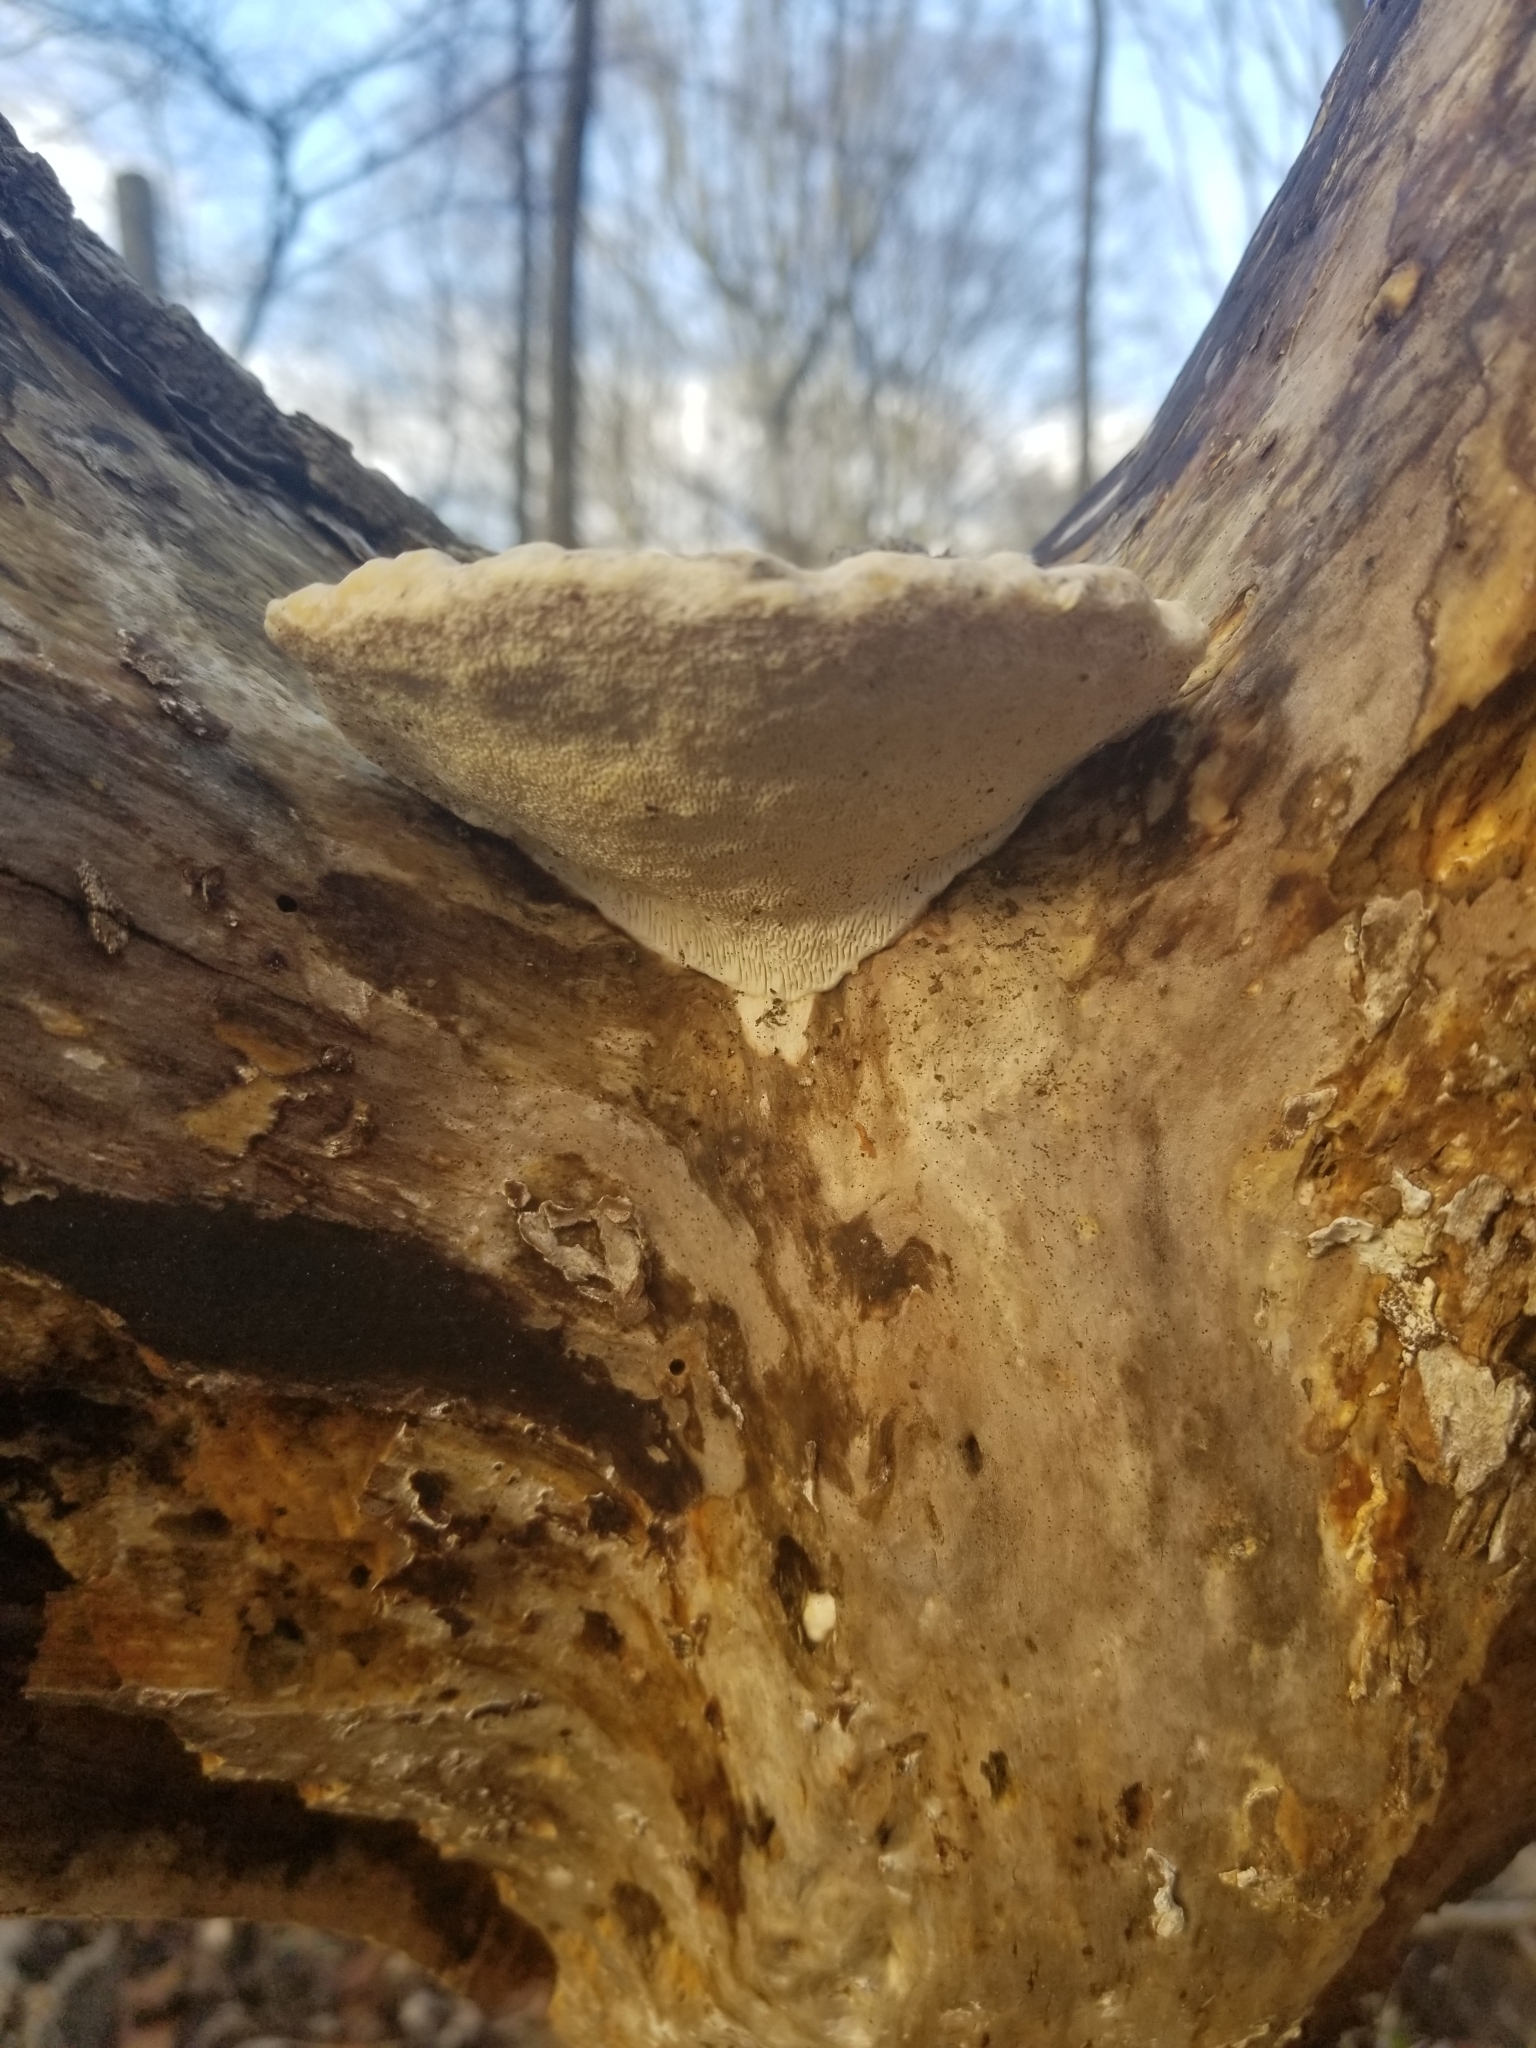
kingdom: Fungi
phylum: Basidiomycota
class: Agaricomycetes
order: Polyporales
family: Polyporaceae
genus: Trametes
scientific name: Trametes gibbosa
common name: Lumpy bracket
